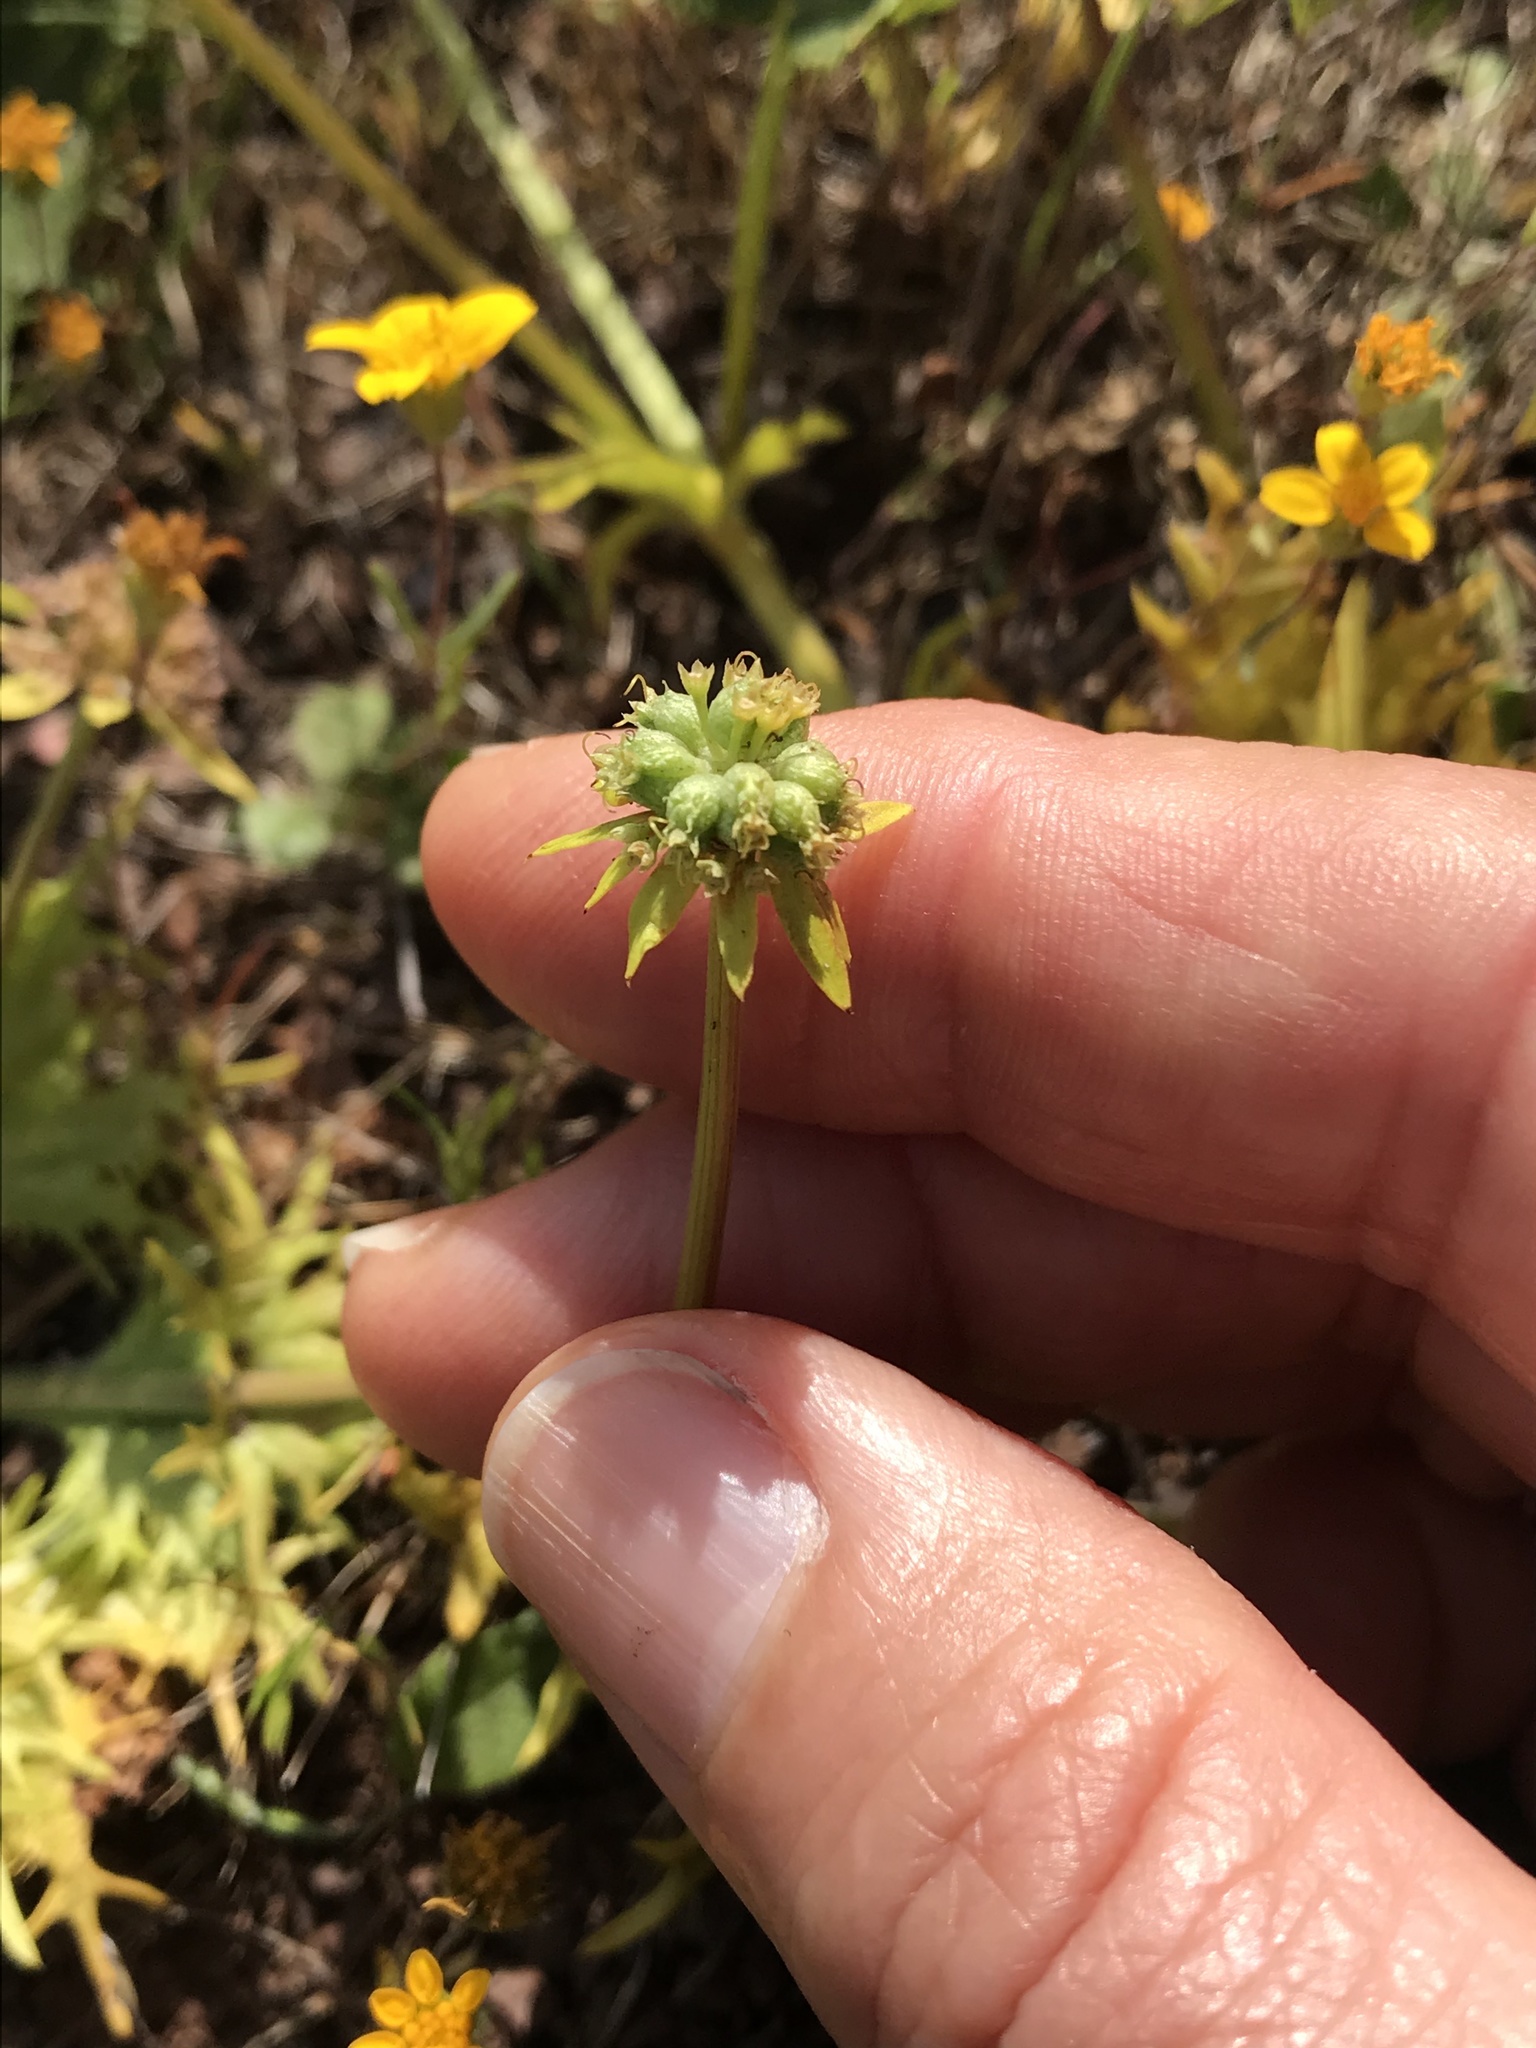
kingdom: Plantae
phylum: Tracheophyta
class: Magnoliopsida
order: Apiales
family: Apiaceae
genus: Sanicula
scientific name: Sanicula arctopoides
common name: Footsteps-of-spring
